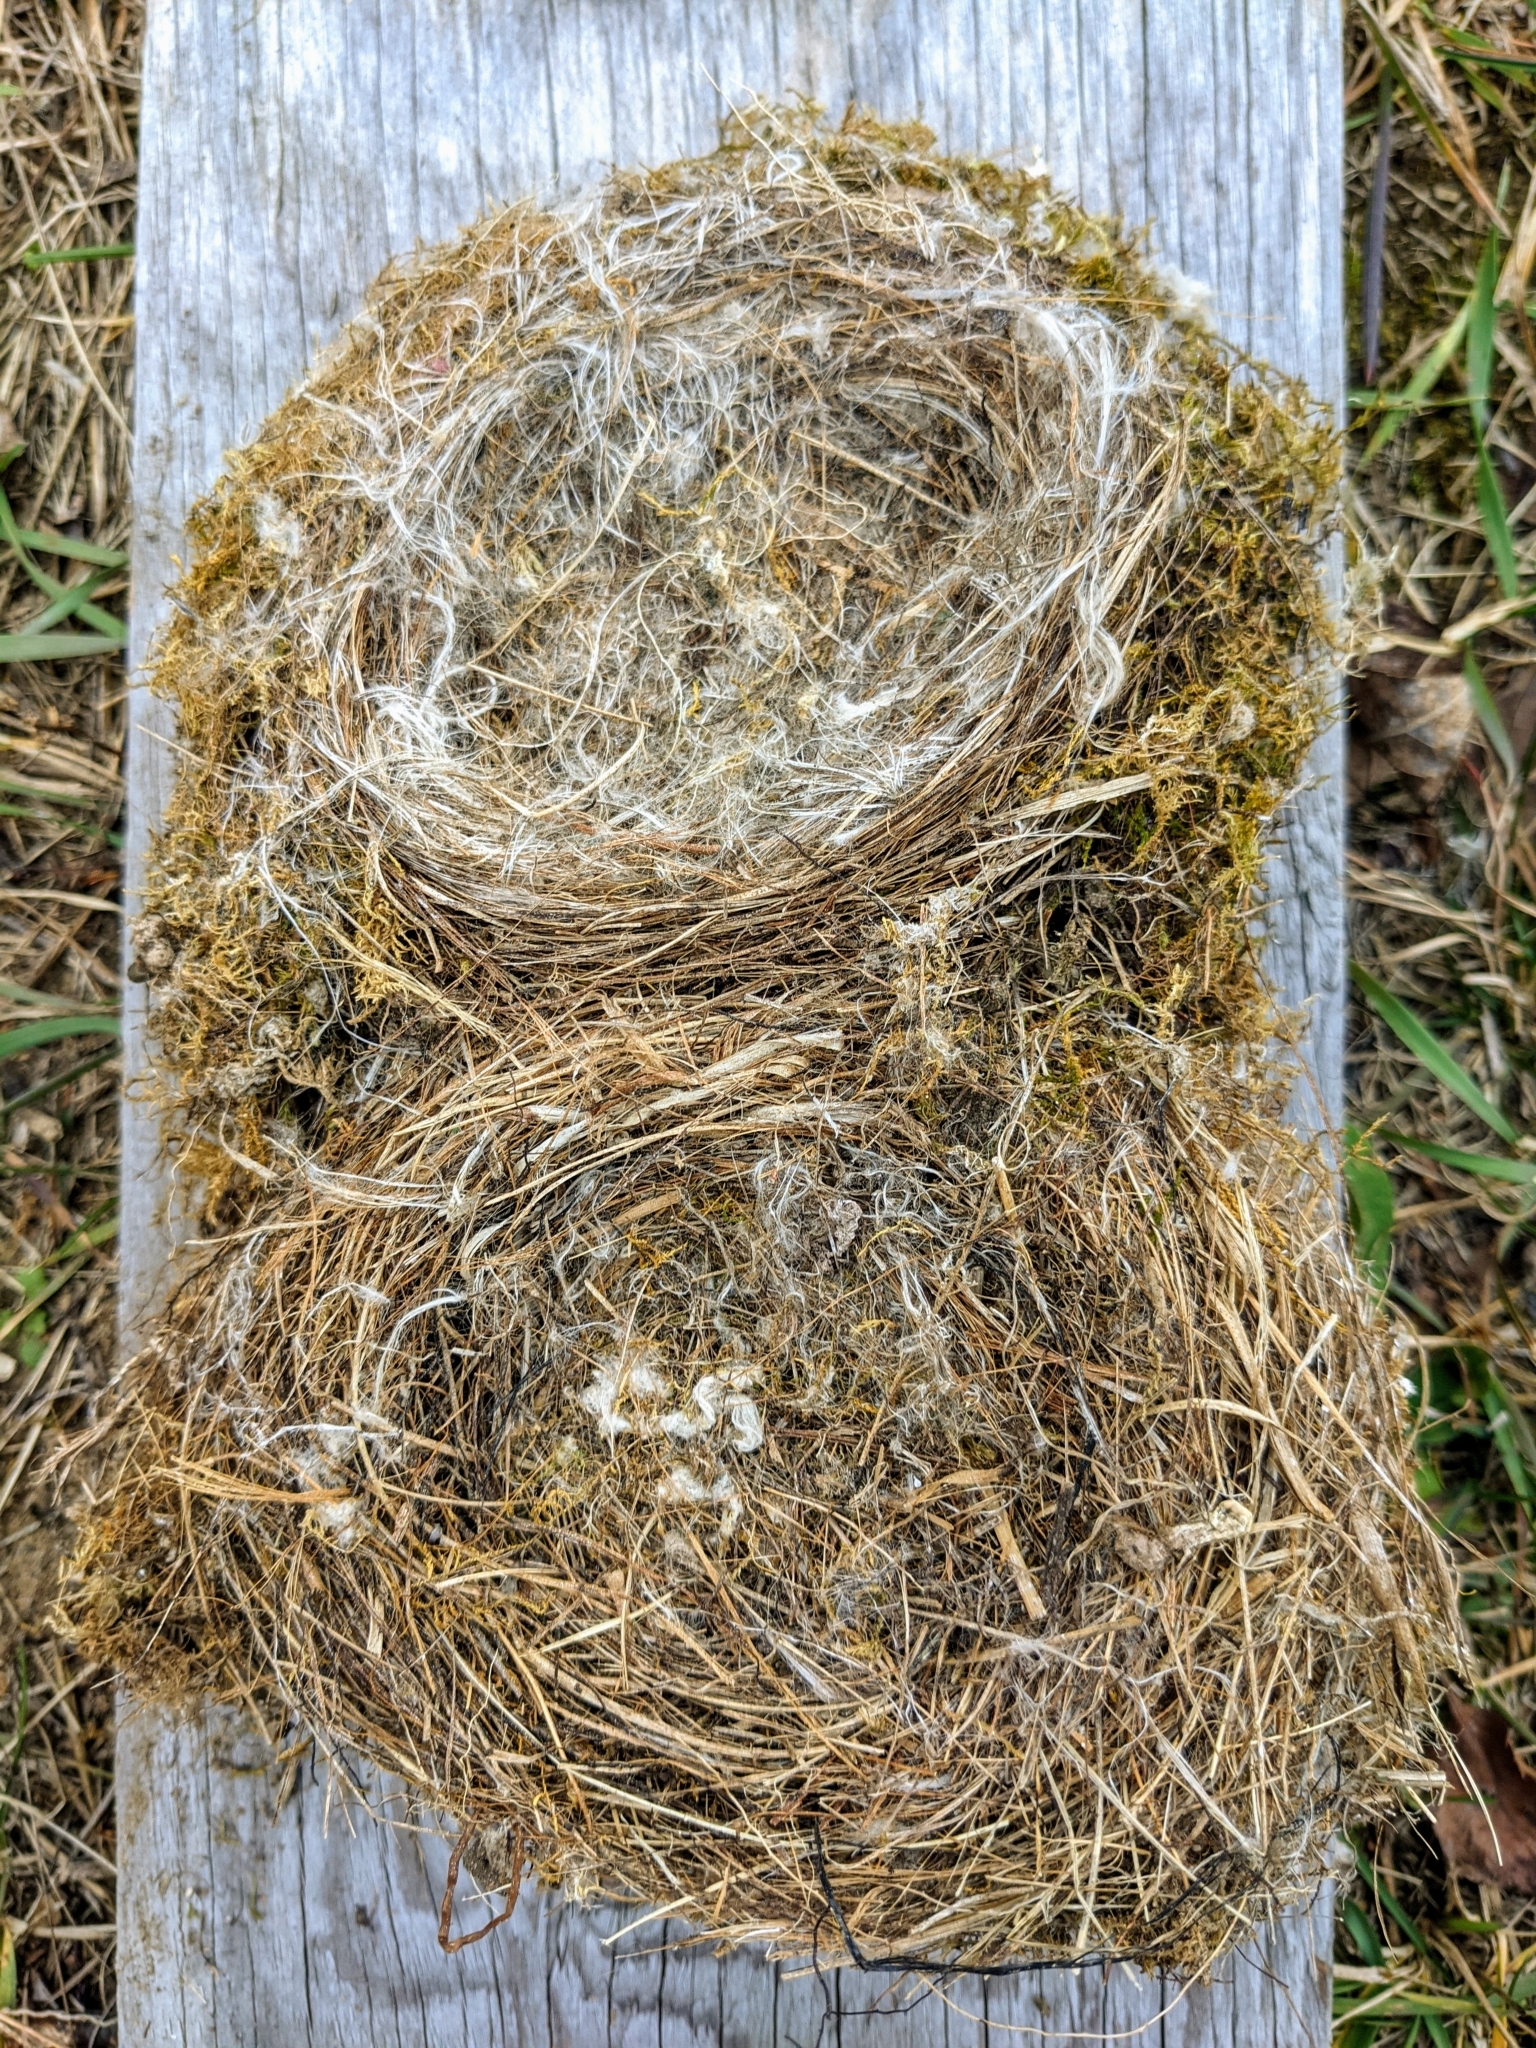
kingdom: Animalia
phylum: Chordata
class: Aves
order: Passeriformes
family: Tyrannidae
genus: Sayornis
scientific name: Sayornis phoebe
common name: Eastern phoebe
